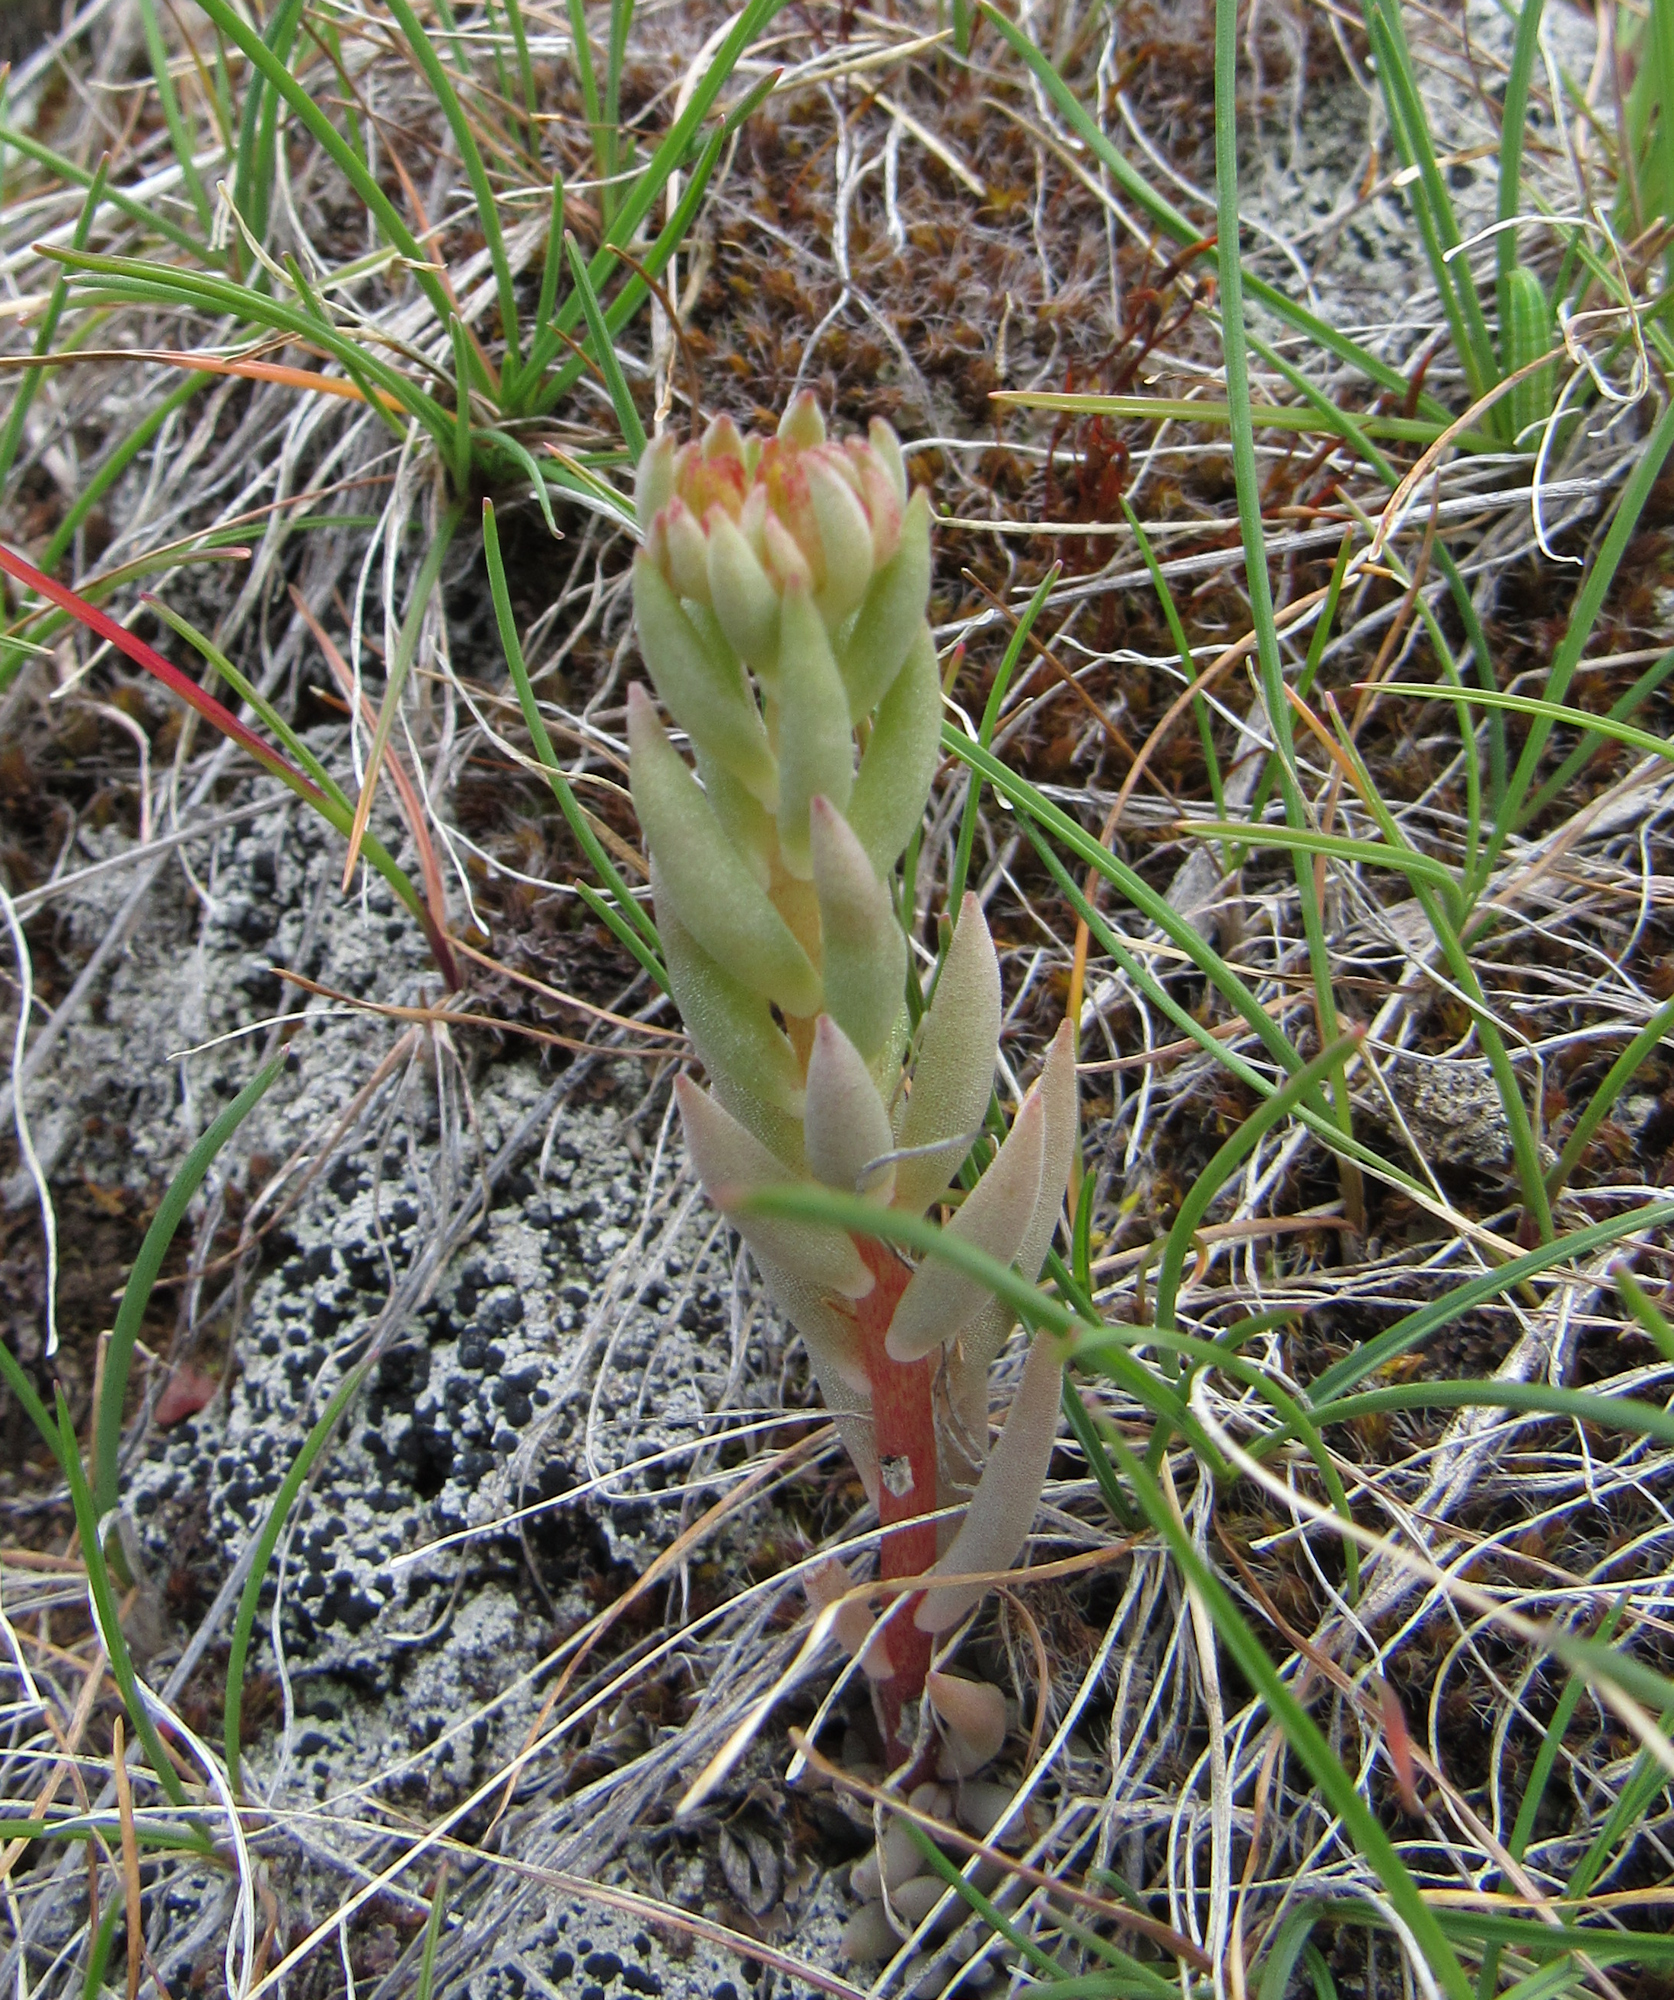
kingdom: Plantae
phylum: Tracheophyta
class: Magnoliopsida
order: Saxifragales
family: Crassulaceae
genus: Sedum
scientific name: Sedum lanceolatum
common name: Common stonecrop
